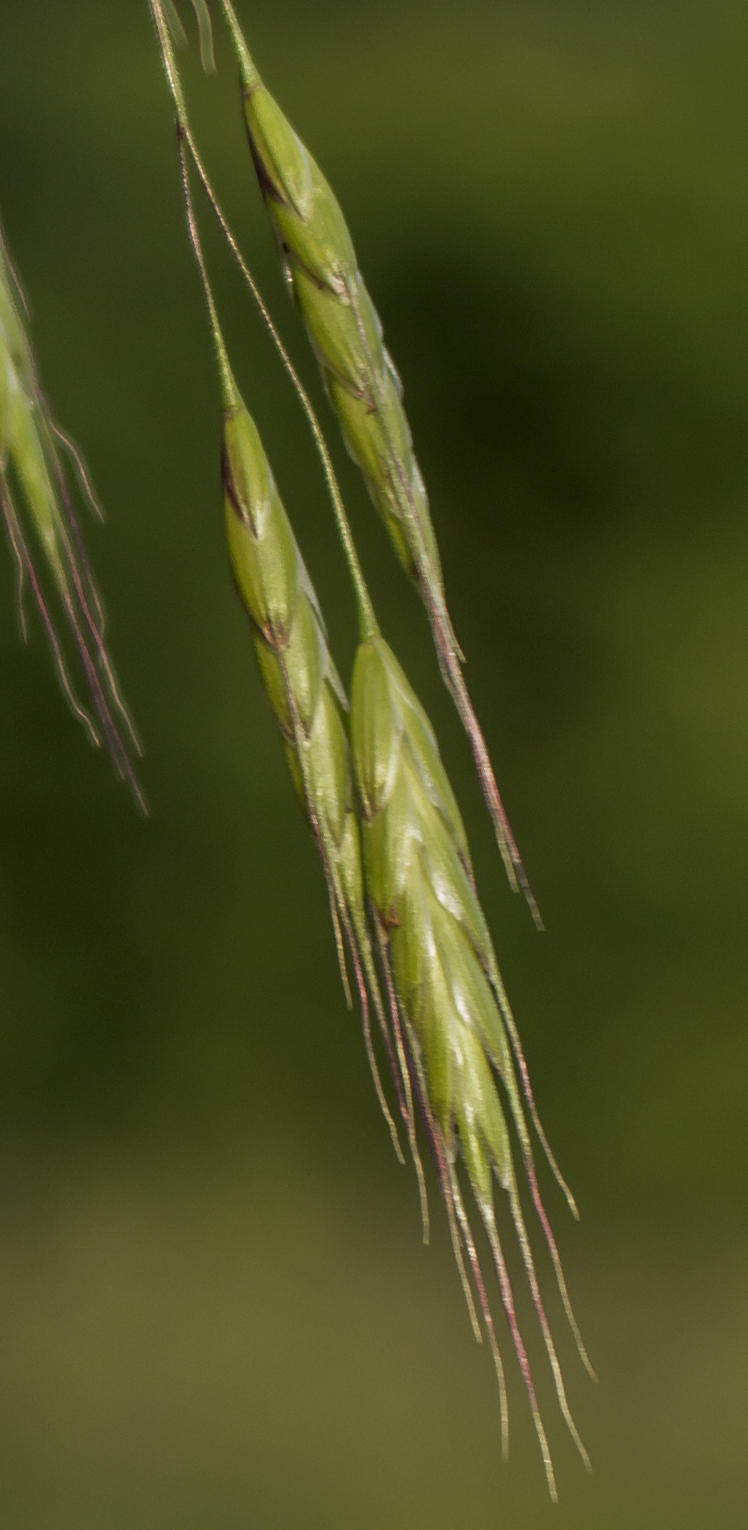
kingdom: Plantae
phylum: Tracheophyta
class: Liliopsida
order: Poales
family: Poaceae
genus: Bromus
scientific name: Bromus arvensis
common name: Field brome
